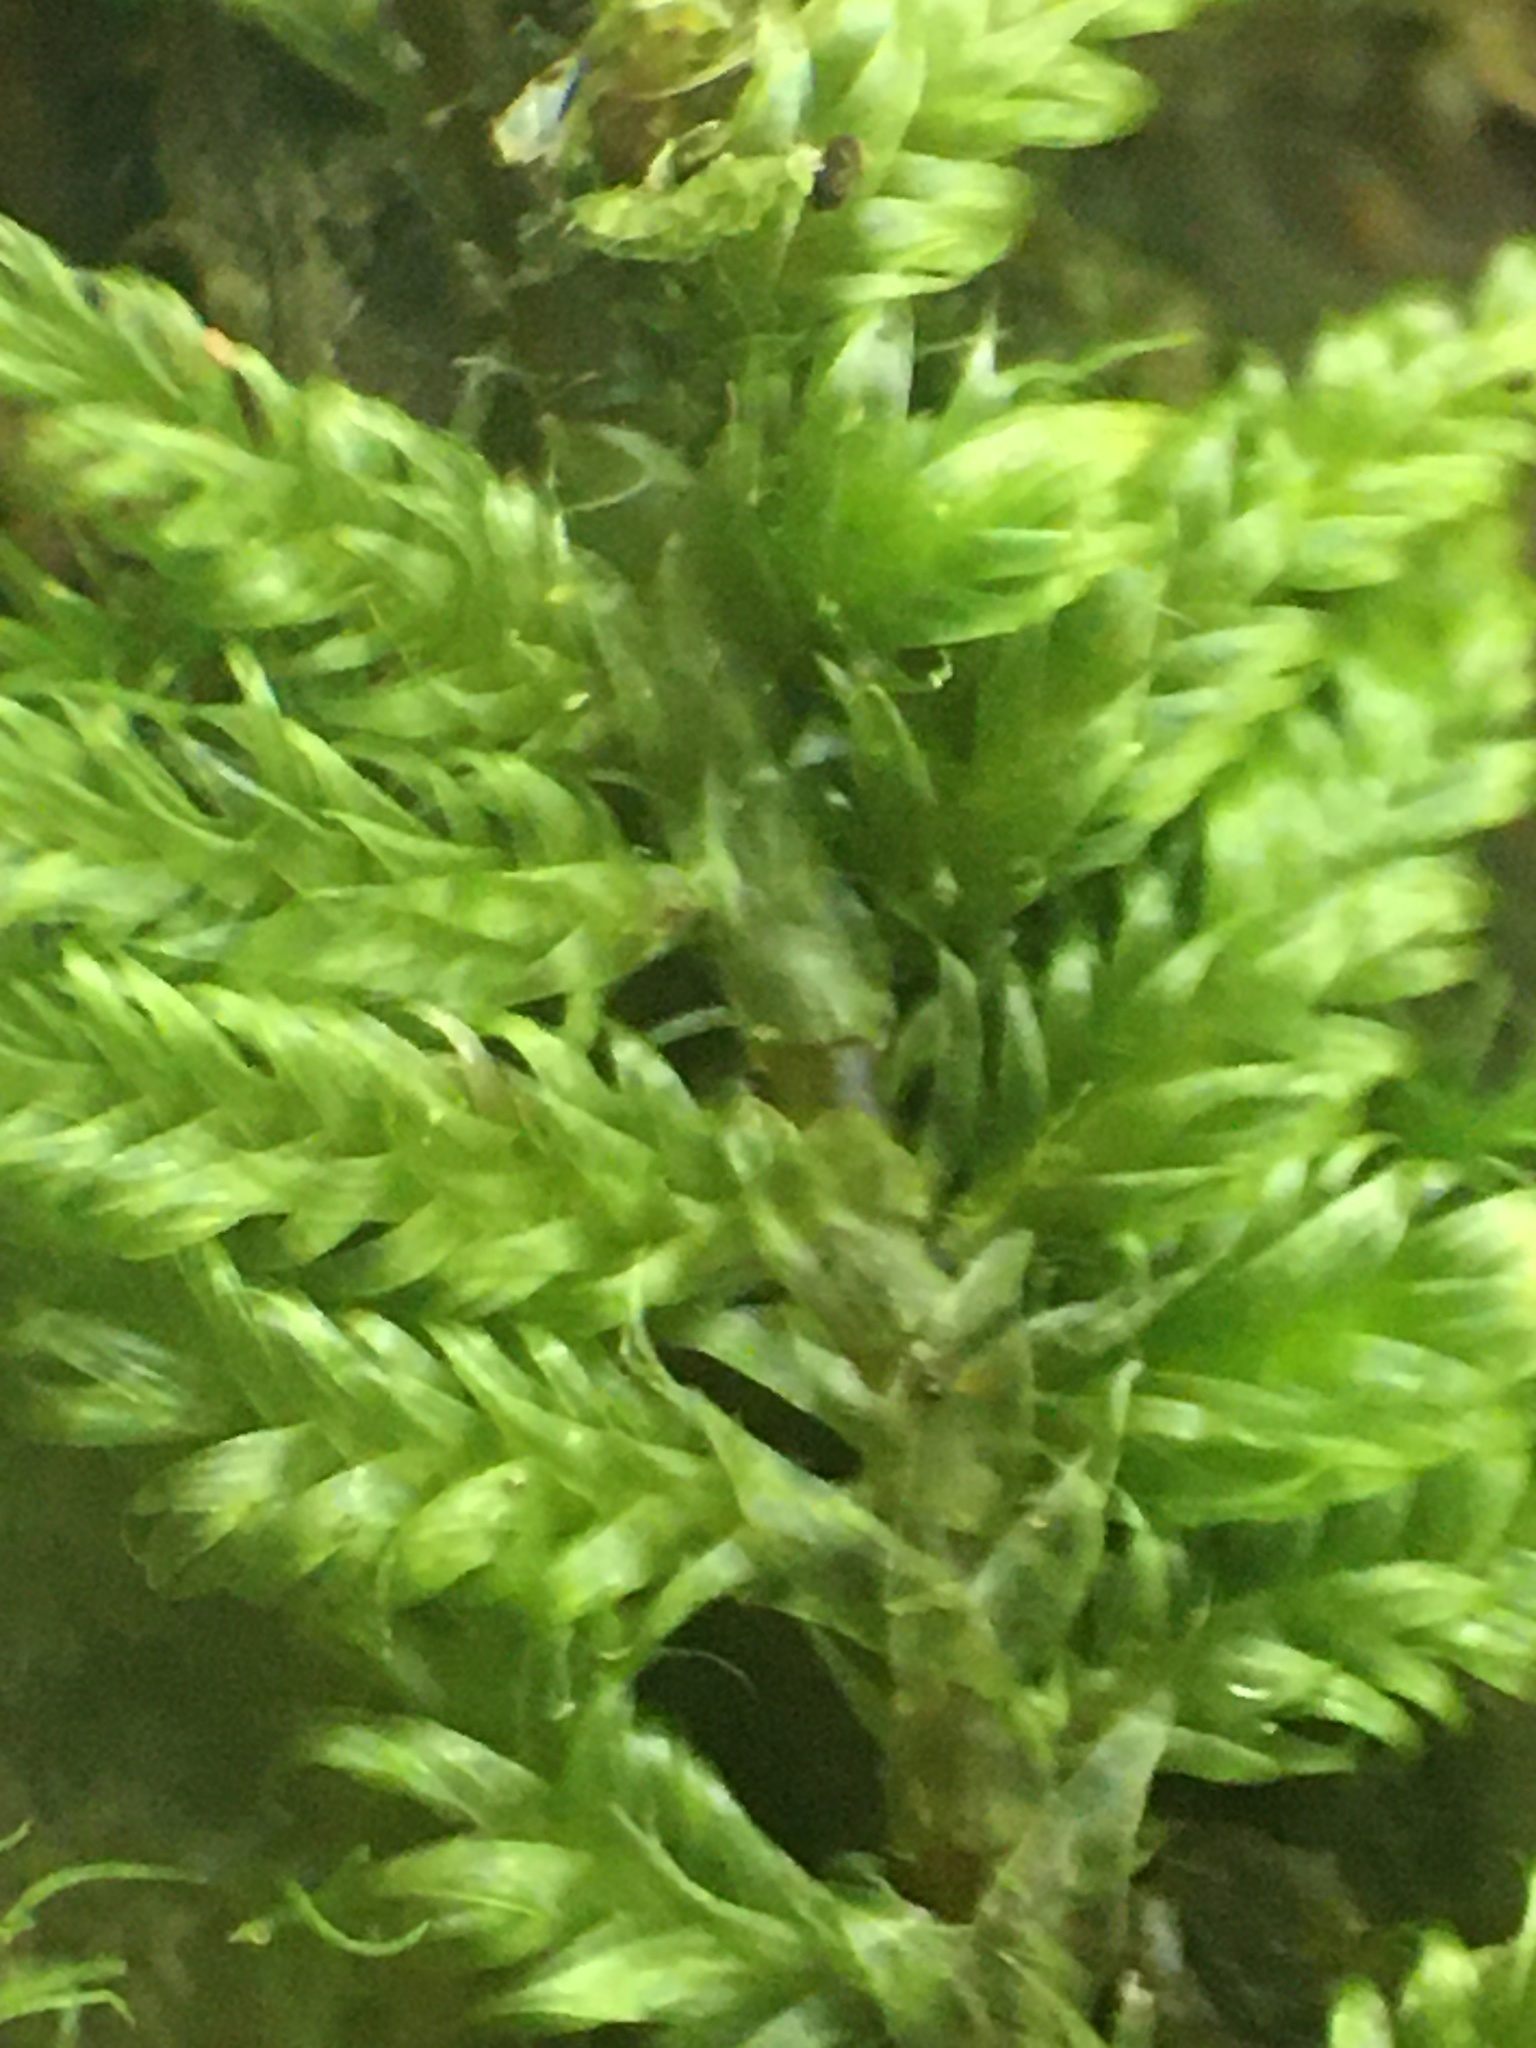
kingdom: Plantae
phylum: Bryophyta
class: Bryopsida
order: Hypnales
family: Callicladiaceae
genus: Callicladium
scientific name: Callicladium imponens
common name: Brocade moss
